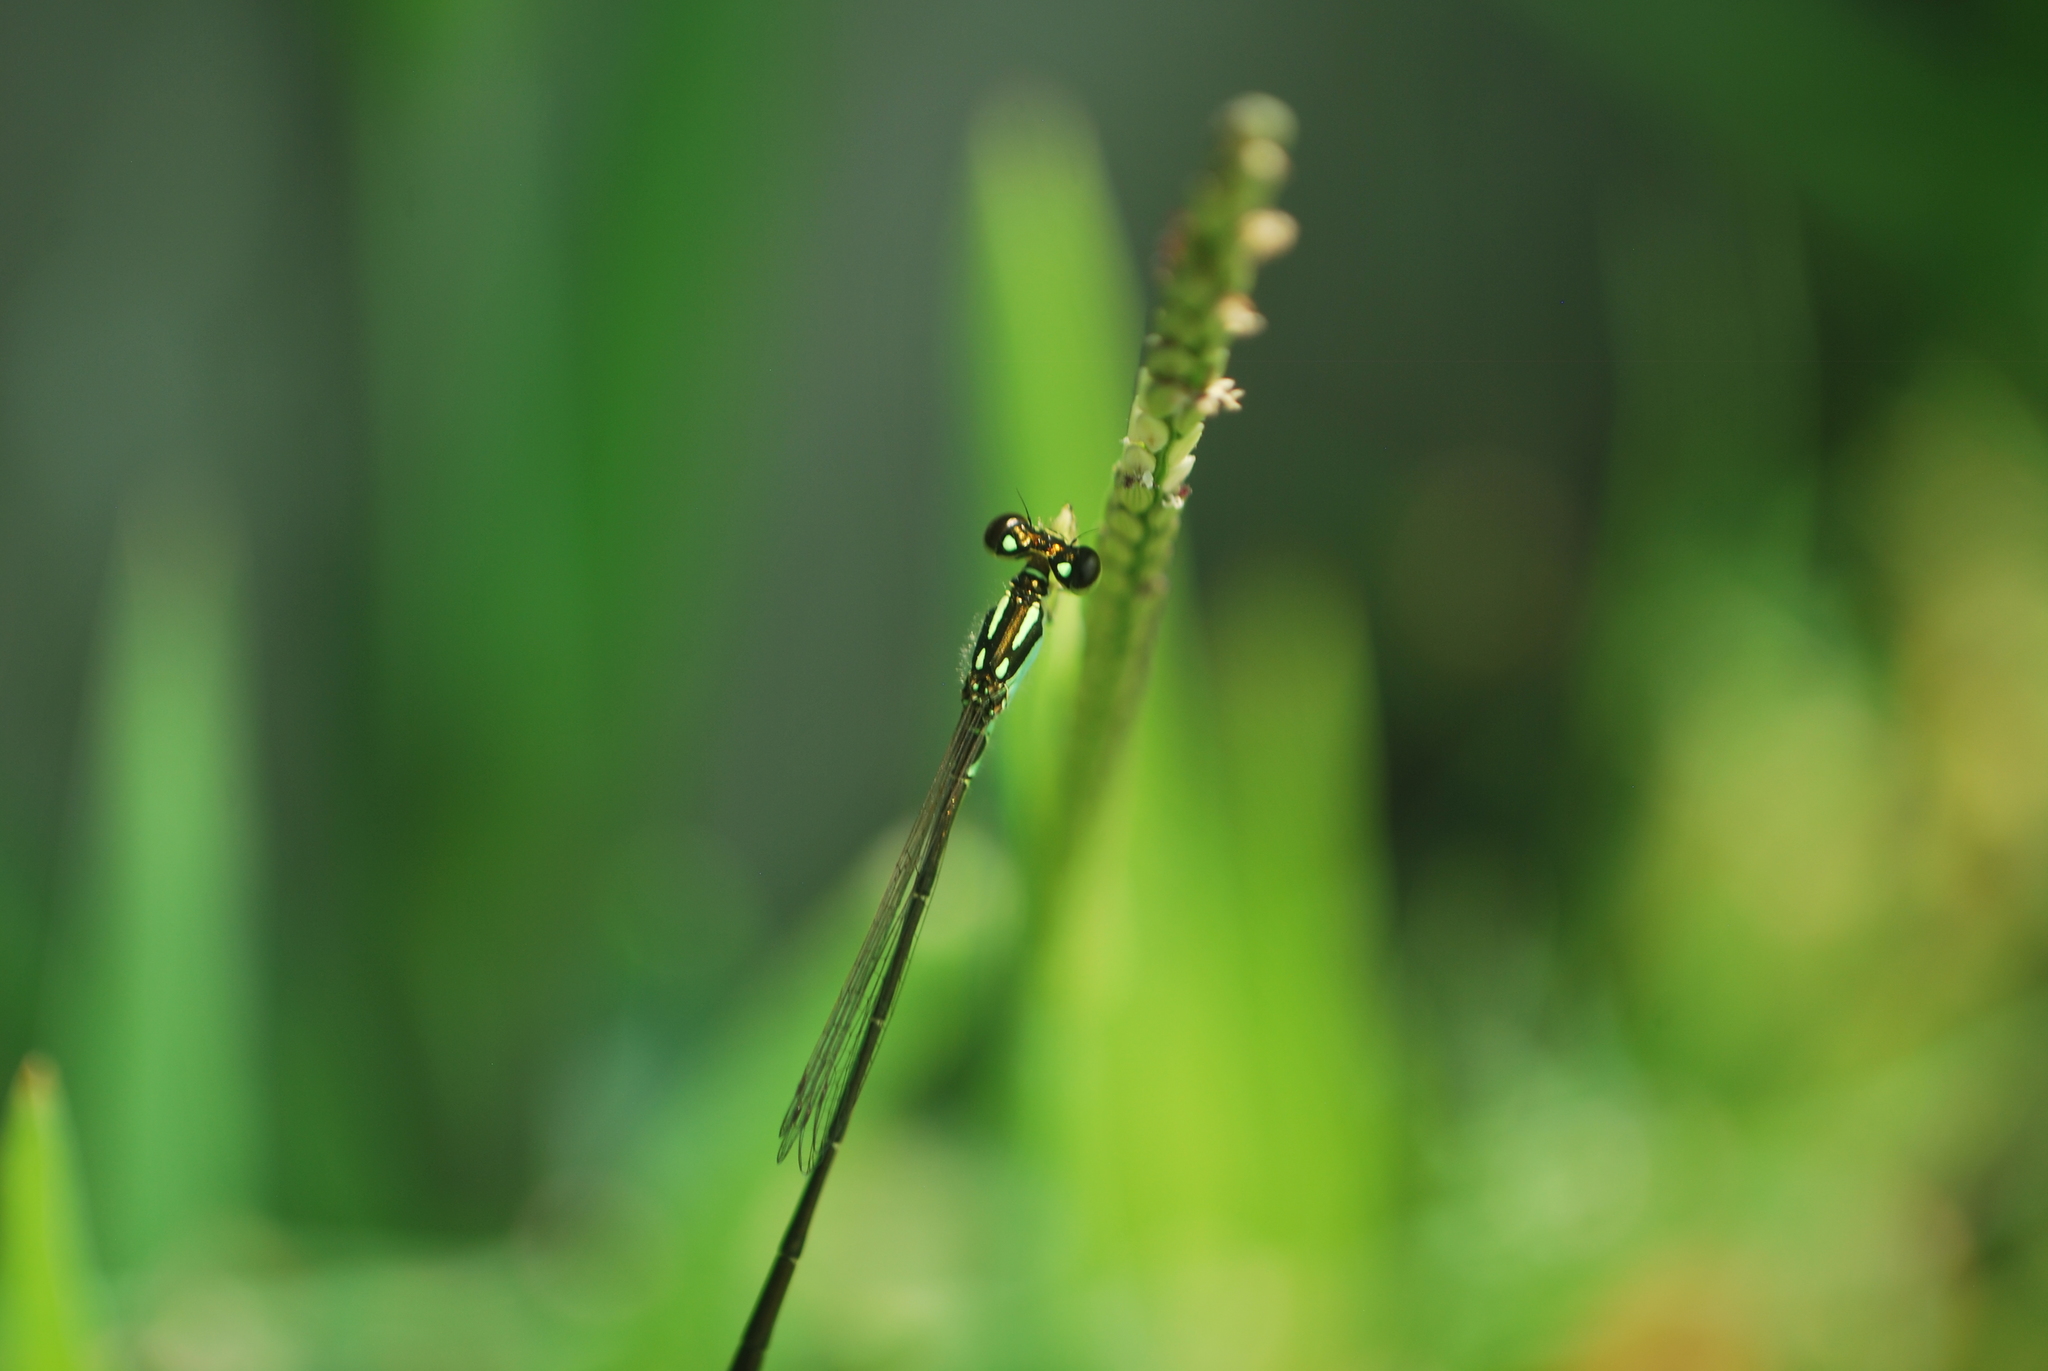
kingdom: Animalia
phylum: Arthropoda
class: Insecta
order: Odonata
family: Coenagrionidae
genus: Ischnura
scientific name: Ischnura posita
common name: Fragile forktail
